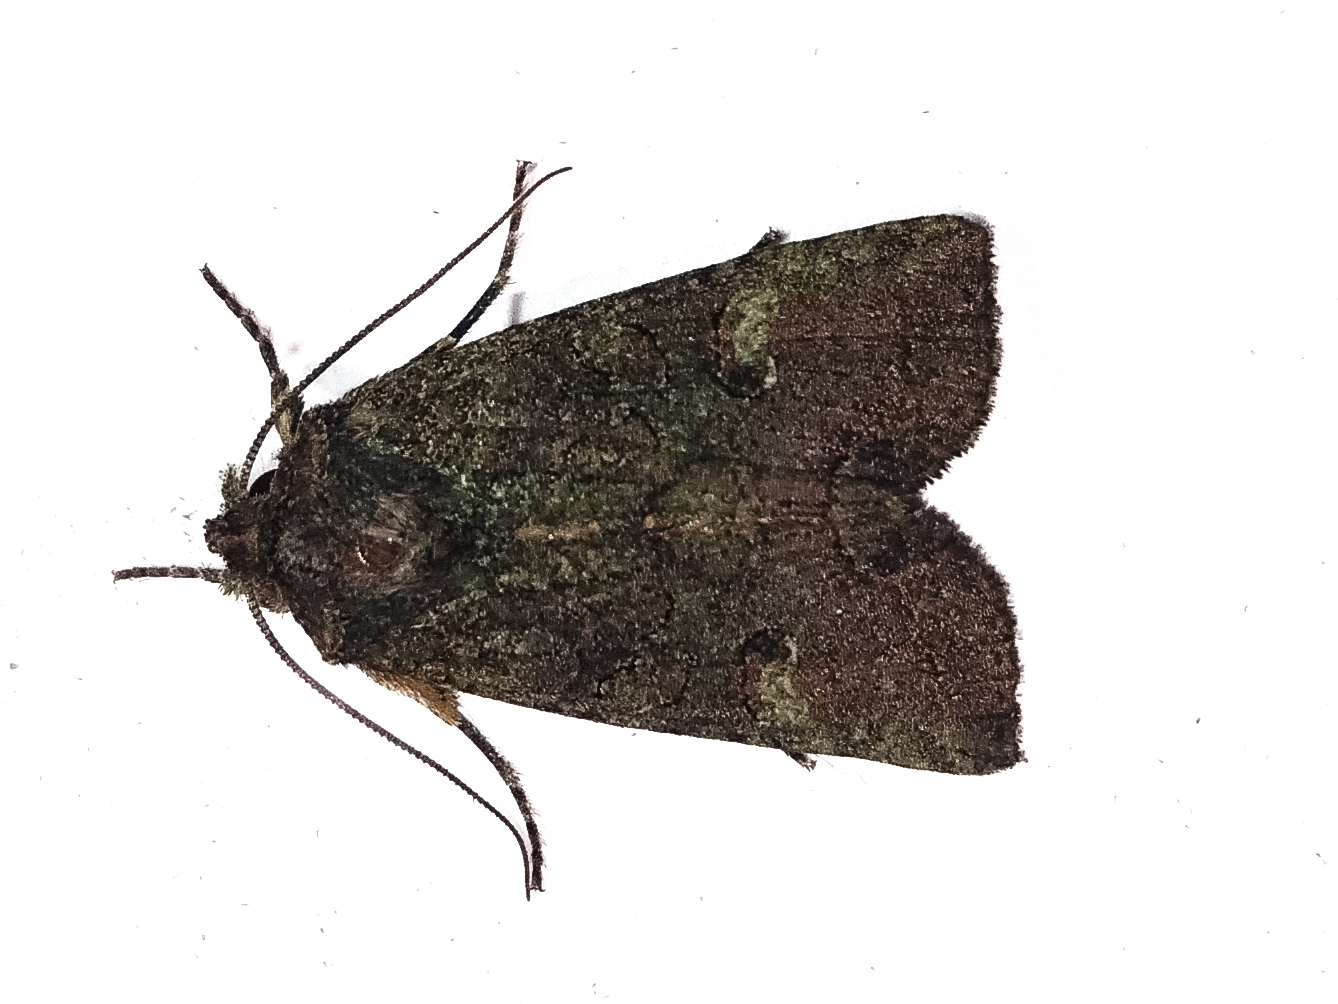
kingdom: Animalia
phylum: Arthropoda
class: Insecta
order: Lepidoptera
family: Noctuidae
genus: Meterana
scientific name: Meterana levis
